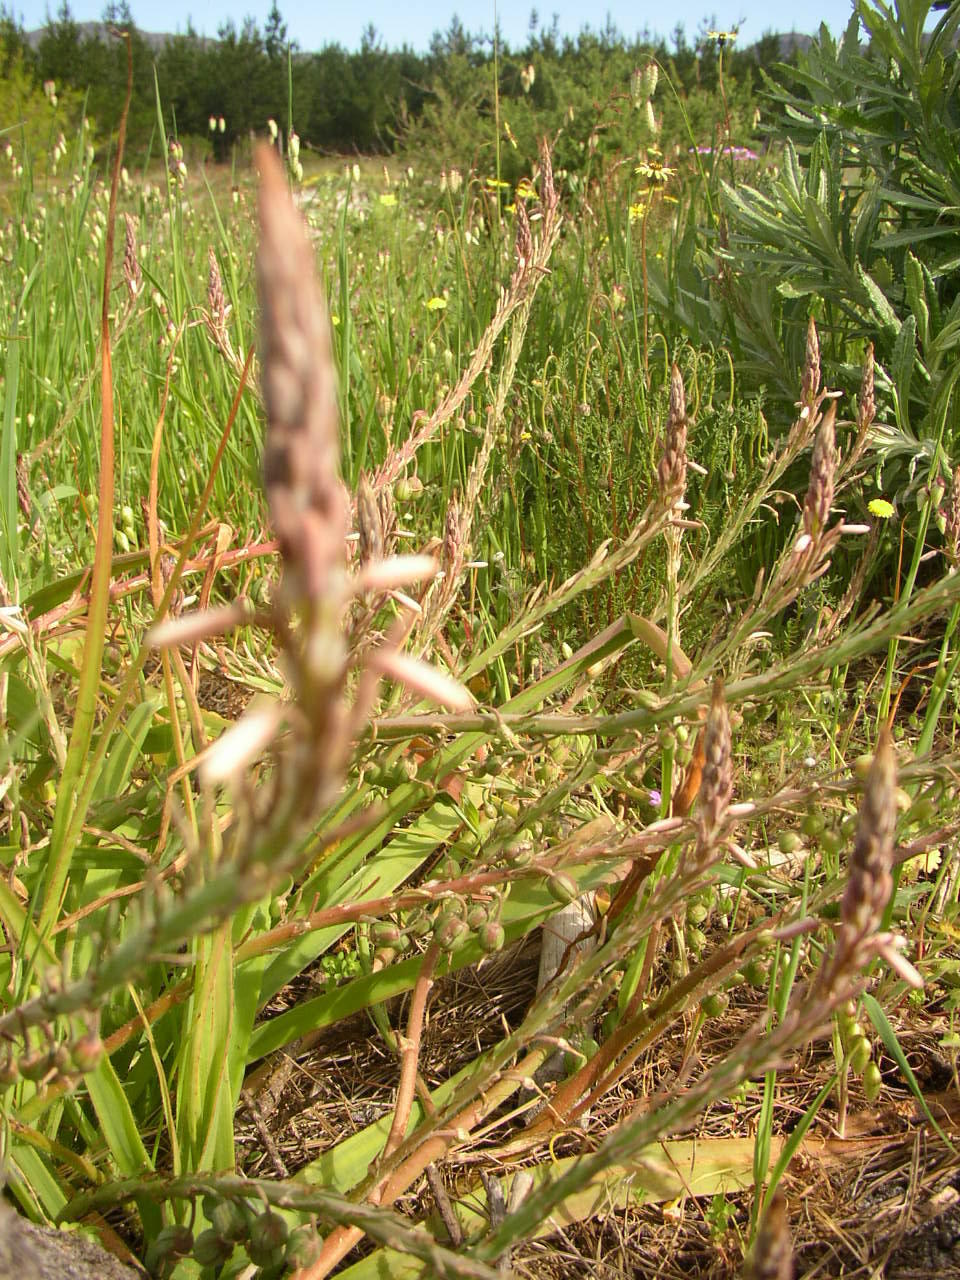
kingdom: Plantae
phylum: Tracheophyta
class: Liliopsida
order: Asparagales
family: Asphodelaceae
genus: Trachyandra
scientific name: Trachyandra ciliata
